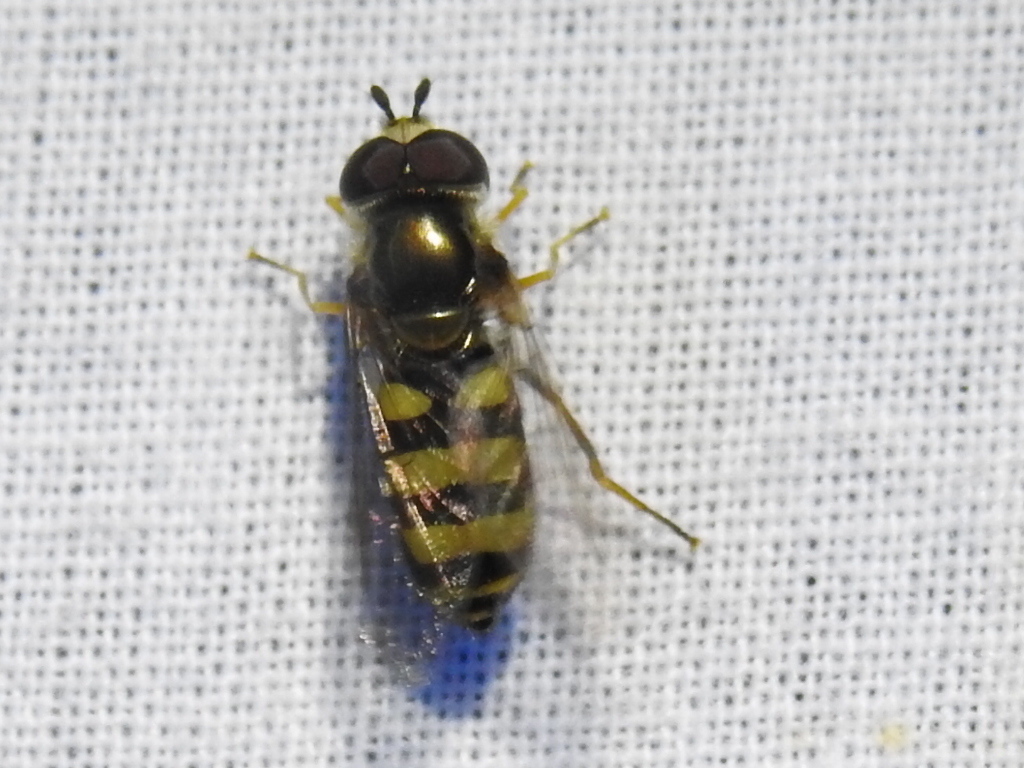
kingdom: Animalia
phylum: Arthropoda
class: Insecta
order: Diptera
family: Syrphidae
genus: Eupeodes
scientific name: Eupeodes
